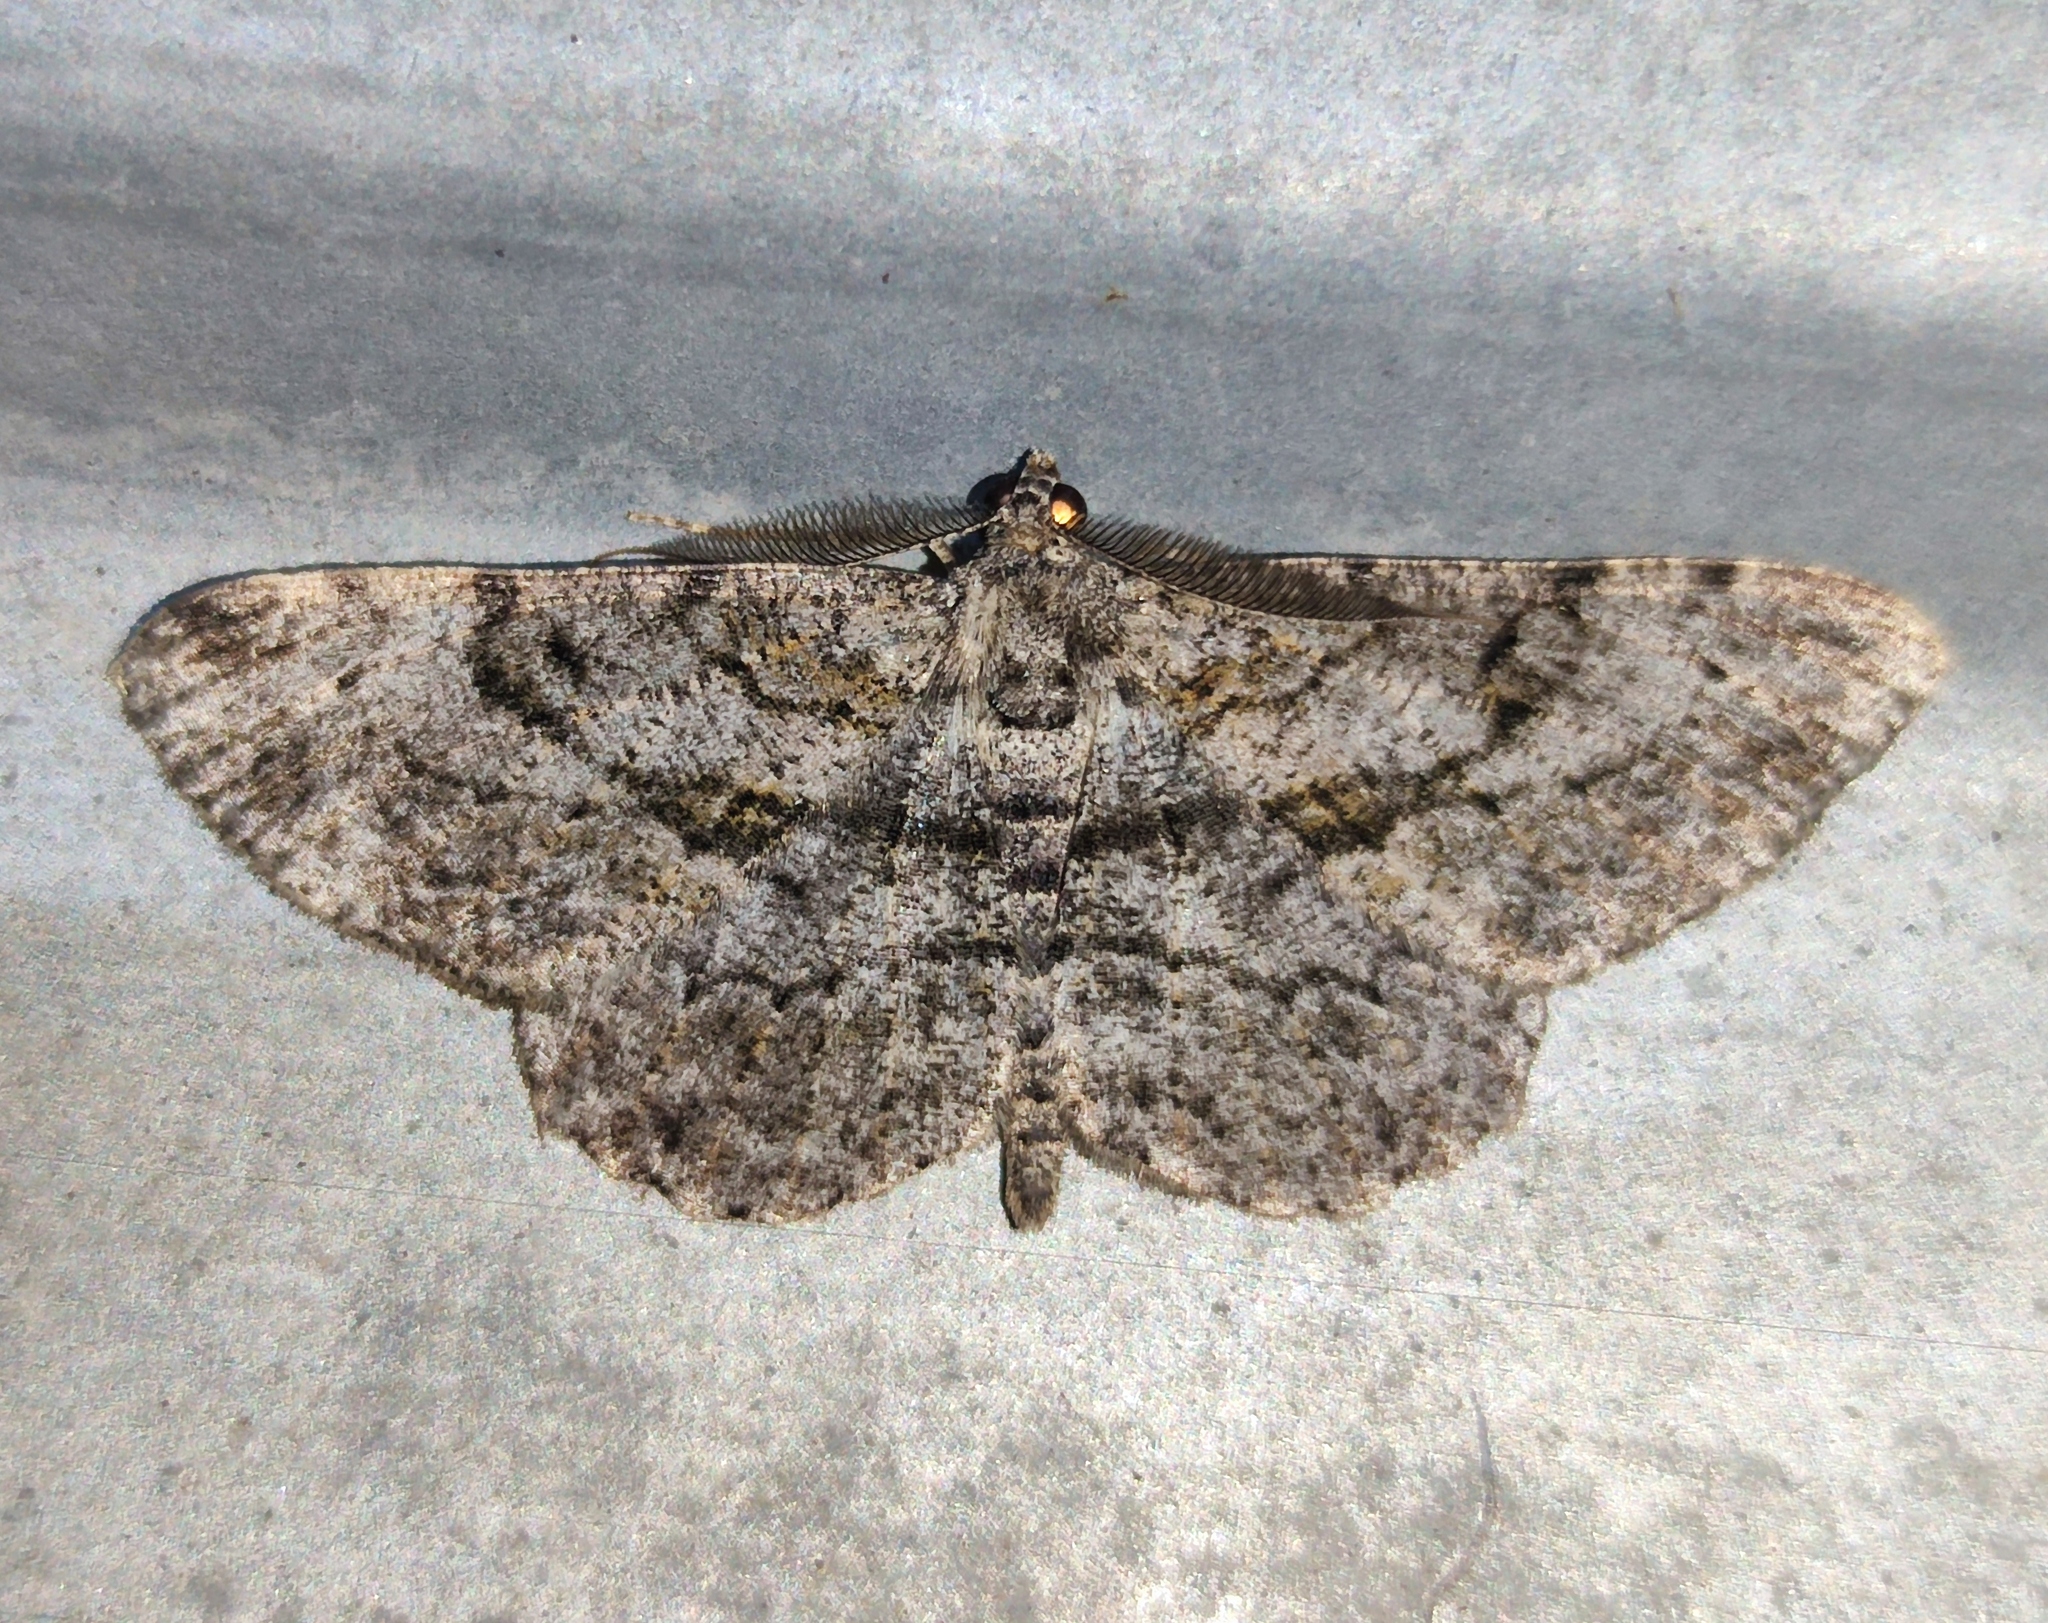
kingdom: Animalia
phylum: Arthropoda
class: Insecta
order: Lepidoptera
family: Geometridae
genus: Peribatodes
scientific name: Peribatodes rhomboidaria
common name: Willow beauty
